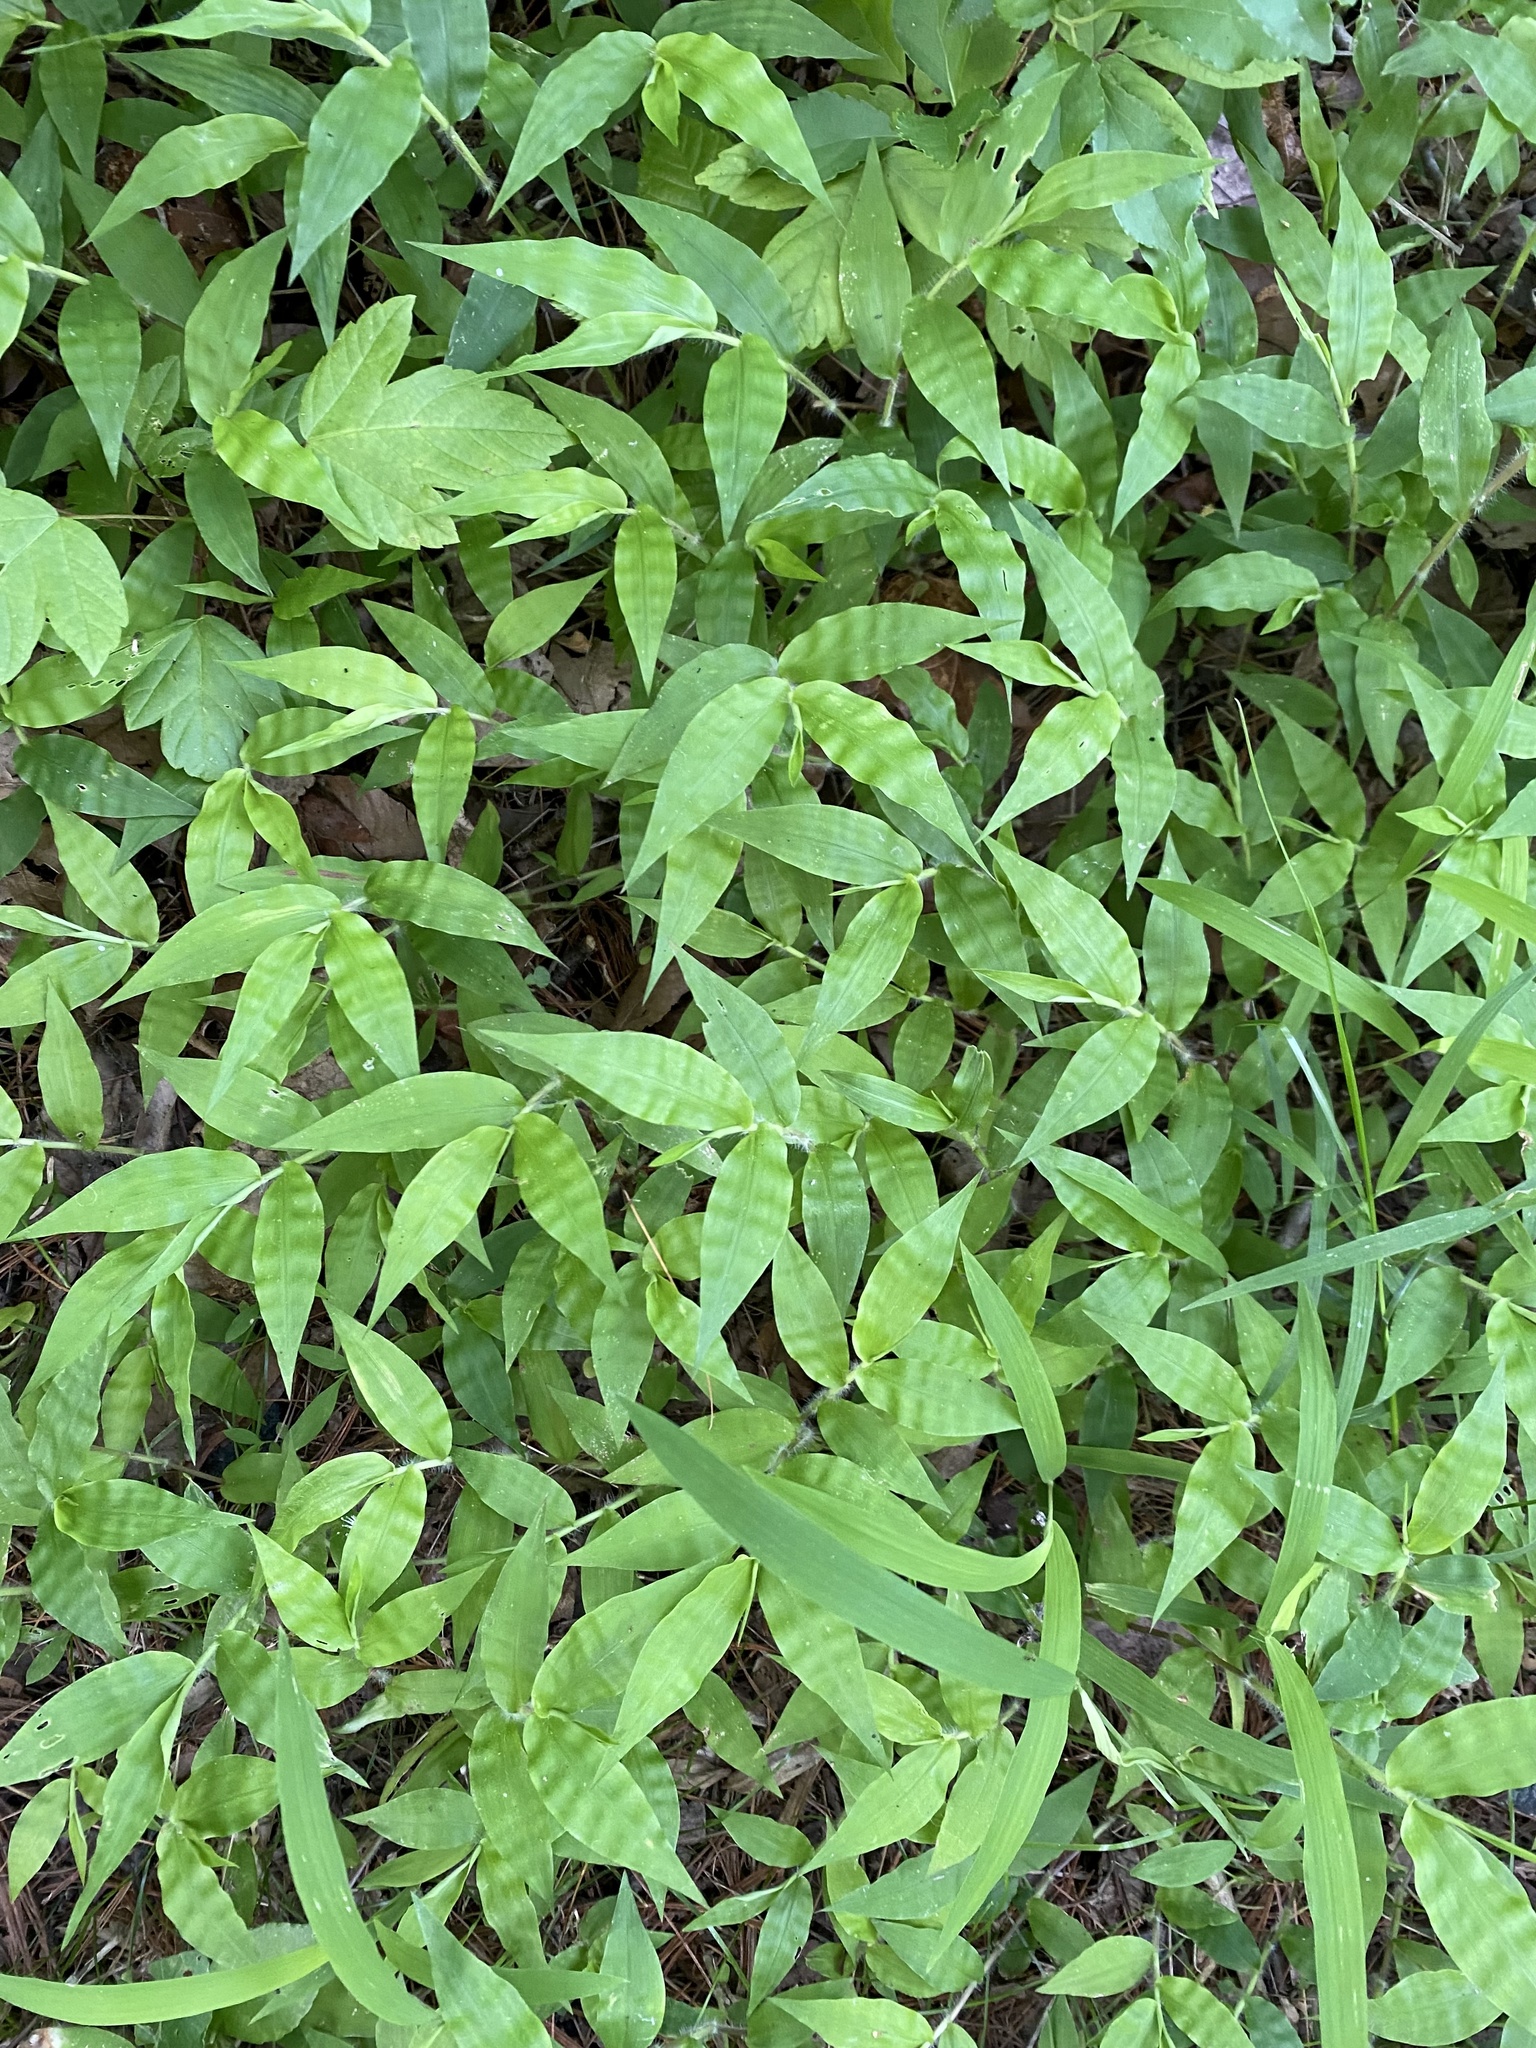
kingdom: Plantae
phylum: Tracheophyta
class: Liliopsida
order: Poales
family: Poaceae
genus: Oplismenus
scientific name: Oplismenus undulatifolius
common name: Wavyleaf basketgrass
